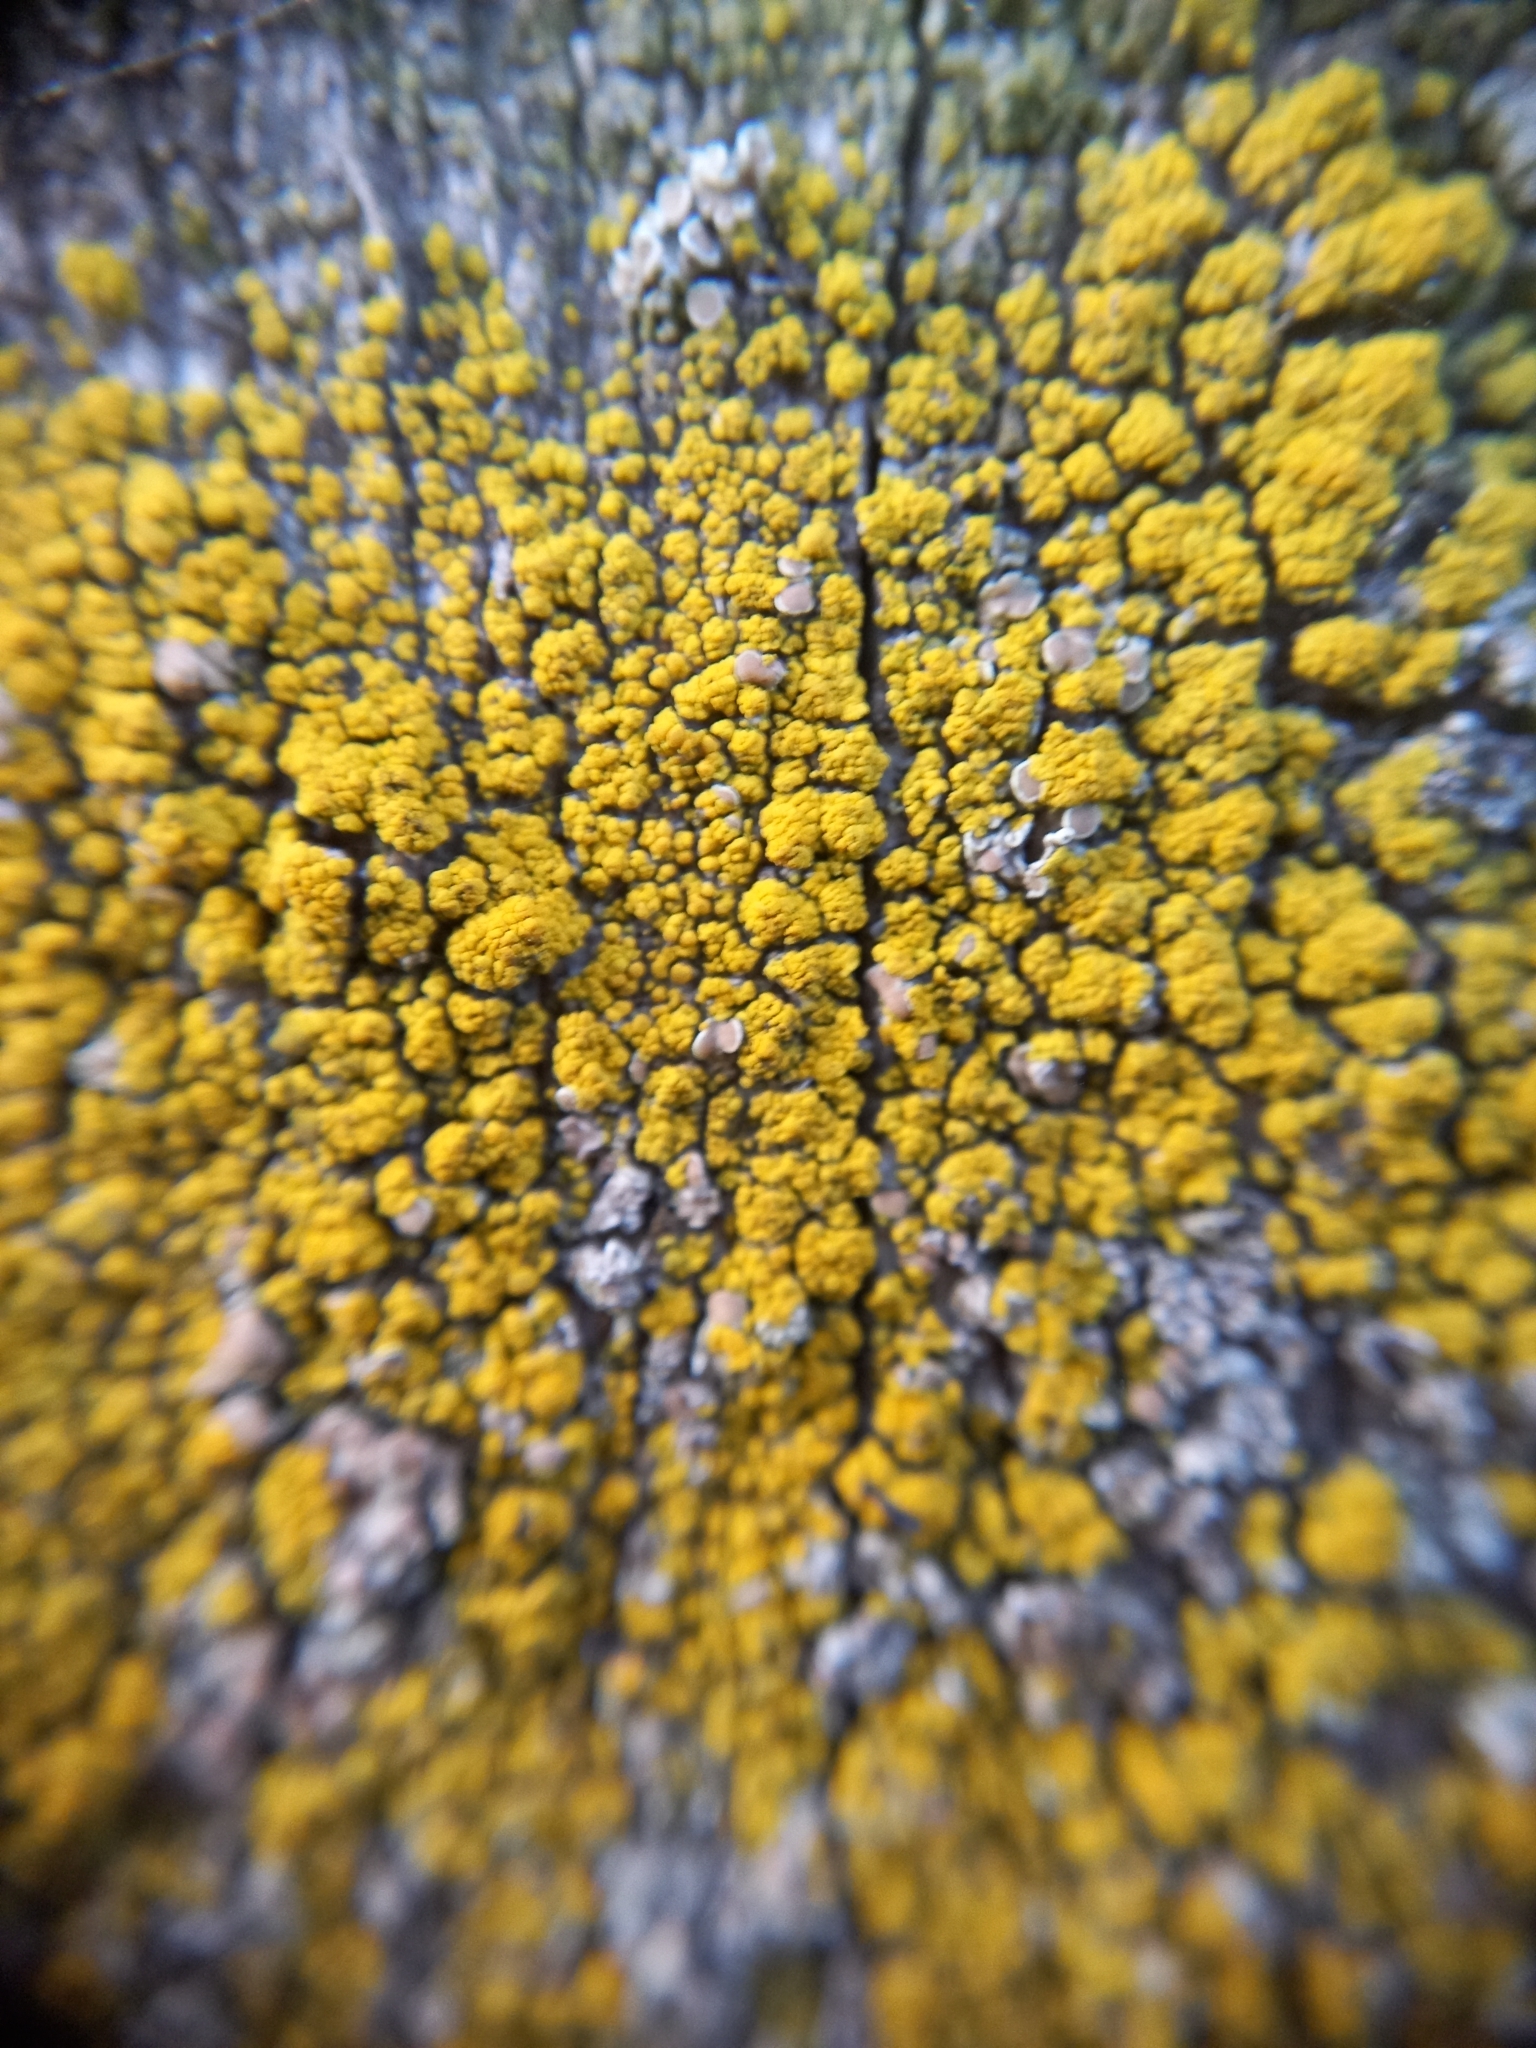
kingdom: Fungi
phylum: Ascomycota
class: Candelariomycetes
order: Candelariales
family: Candelariaceae
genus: Candelariella
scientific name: Candelariella vitellina
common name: Common goldspeck
